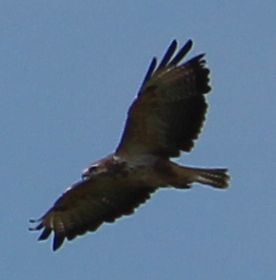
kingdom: Animalia
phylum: Chordata
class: Aves
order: Accipitriformes
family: Accipitridae
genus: Buteo
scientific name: Buteo buteo
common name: Common buzzard
